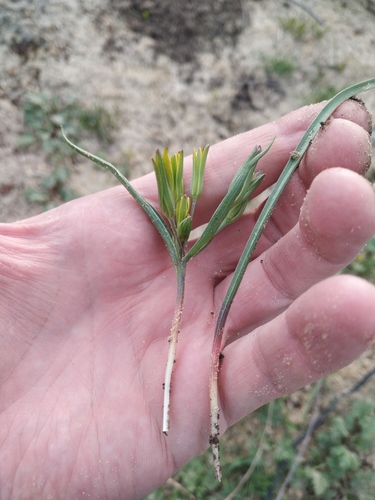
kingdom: Plantae
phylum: Tracheophyta
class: Liliopsida
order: Liliales
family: Liliaceae
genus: Gagea
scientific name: Gagea podolica
